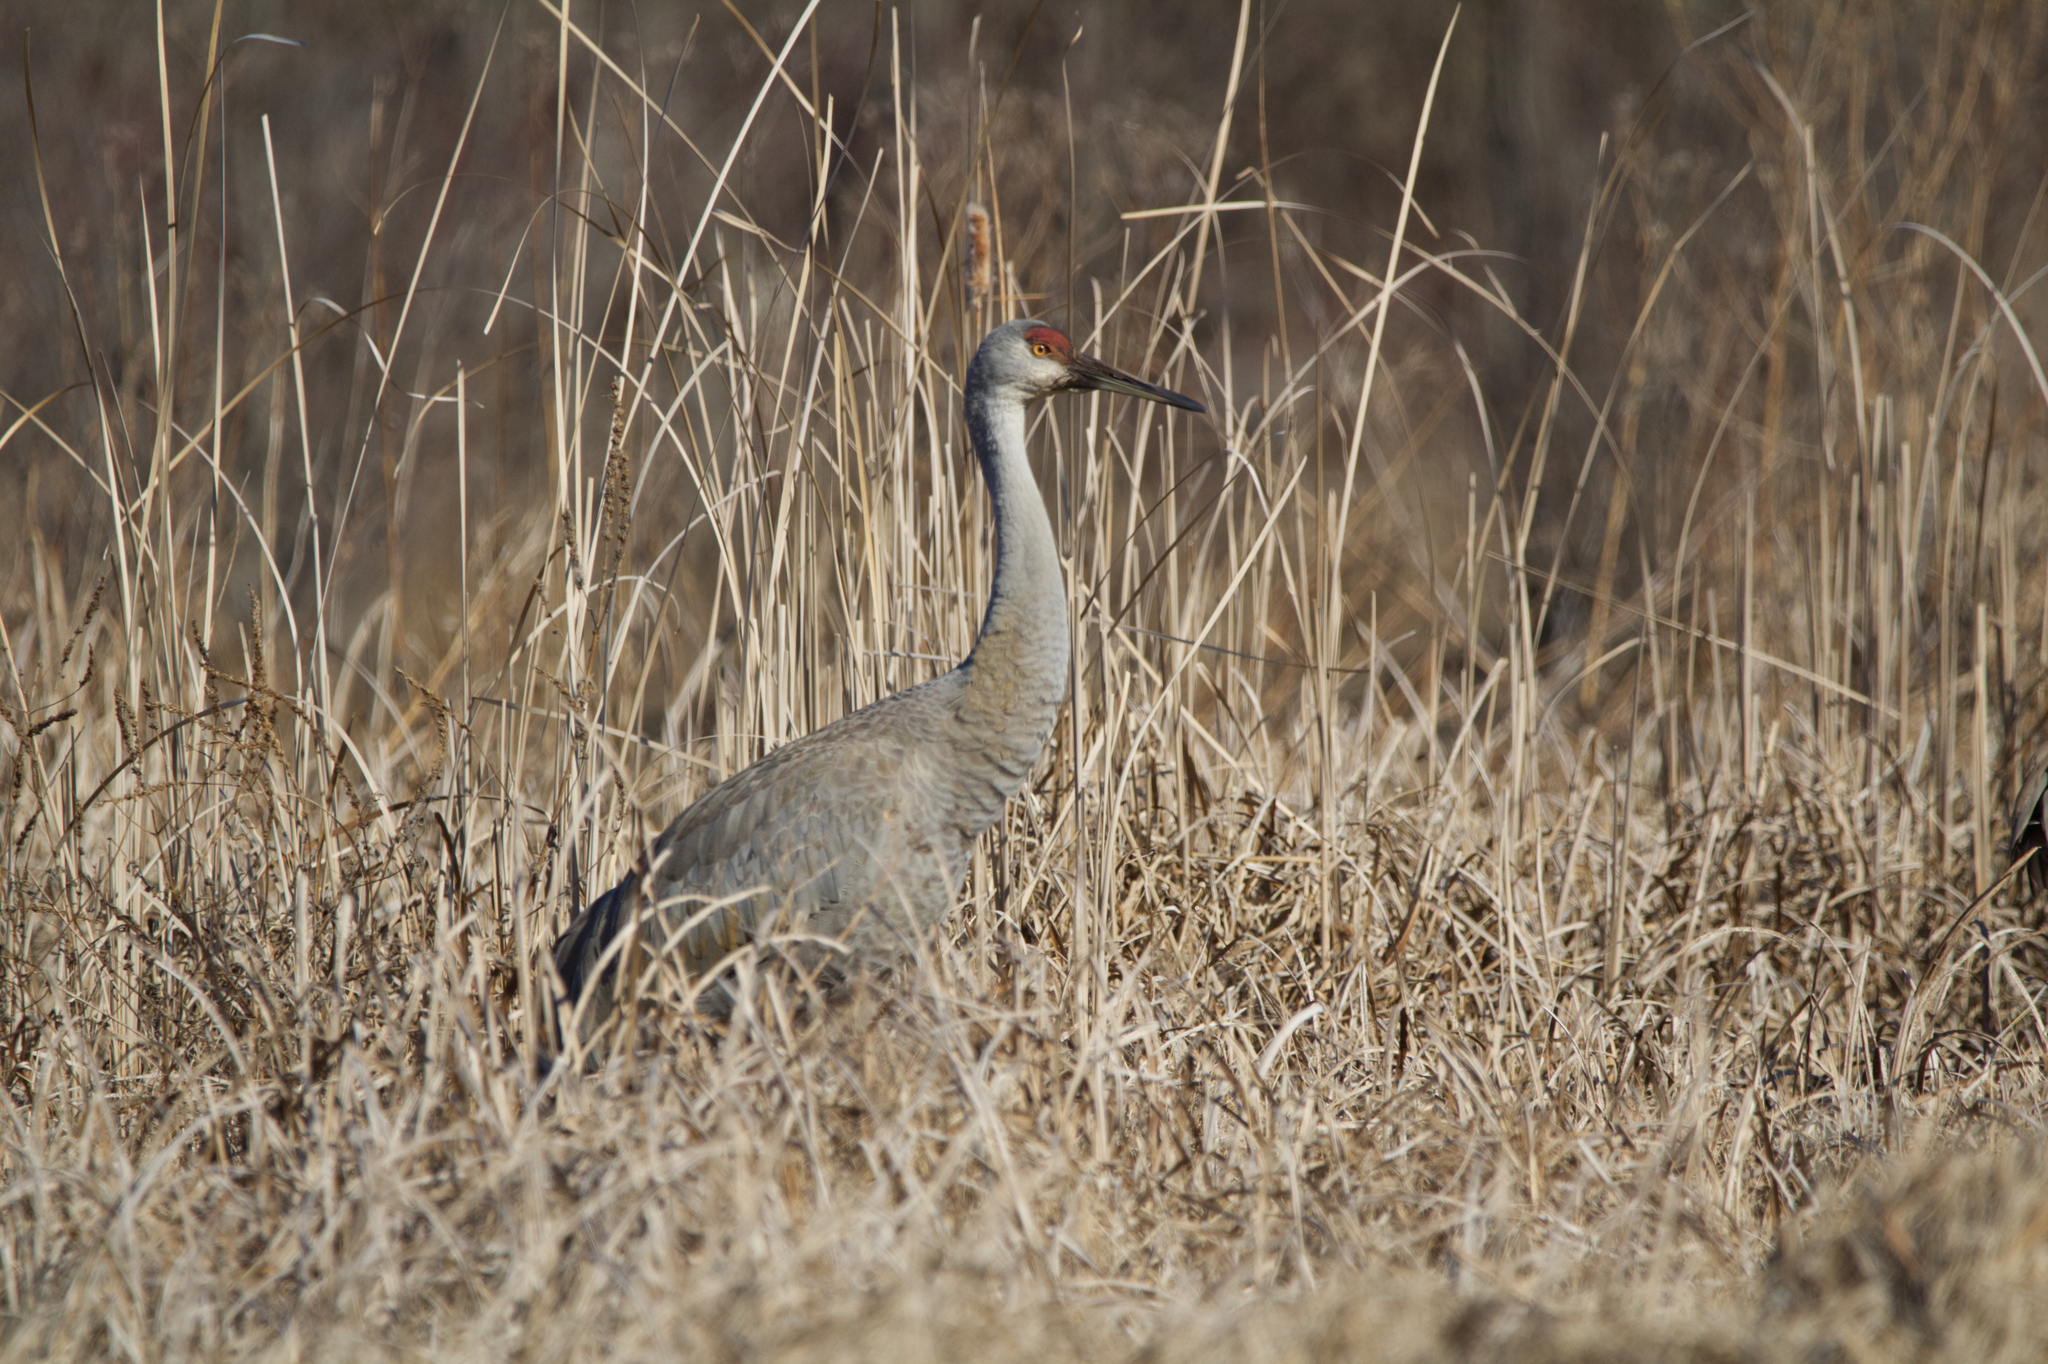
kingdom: Animalia
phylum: Chordata
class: Aves
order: Gruiformes
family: Gruidae
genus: Grus
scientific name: Grus canadensis
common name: Sandhill crane
